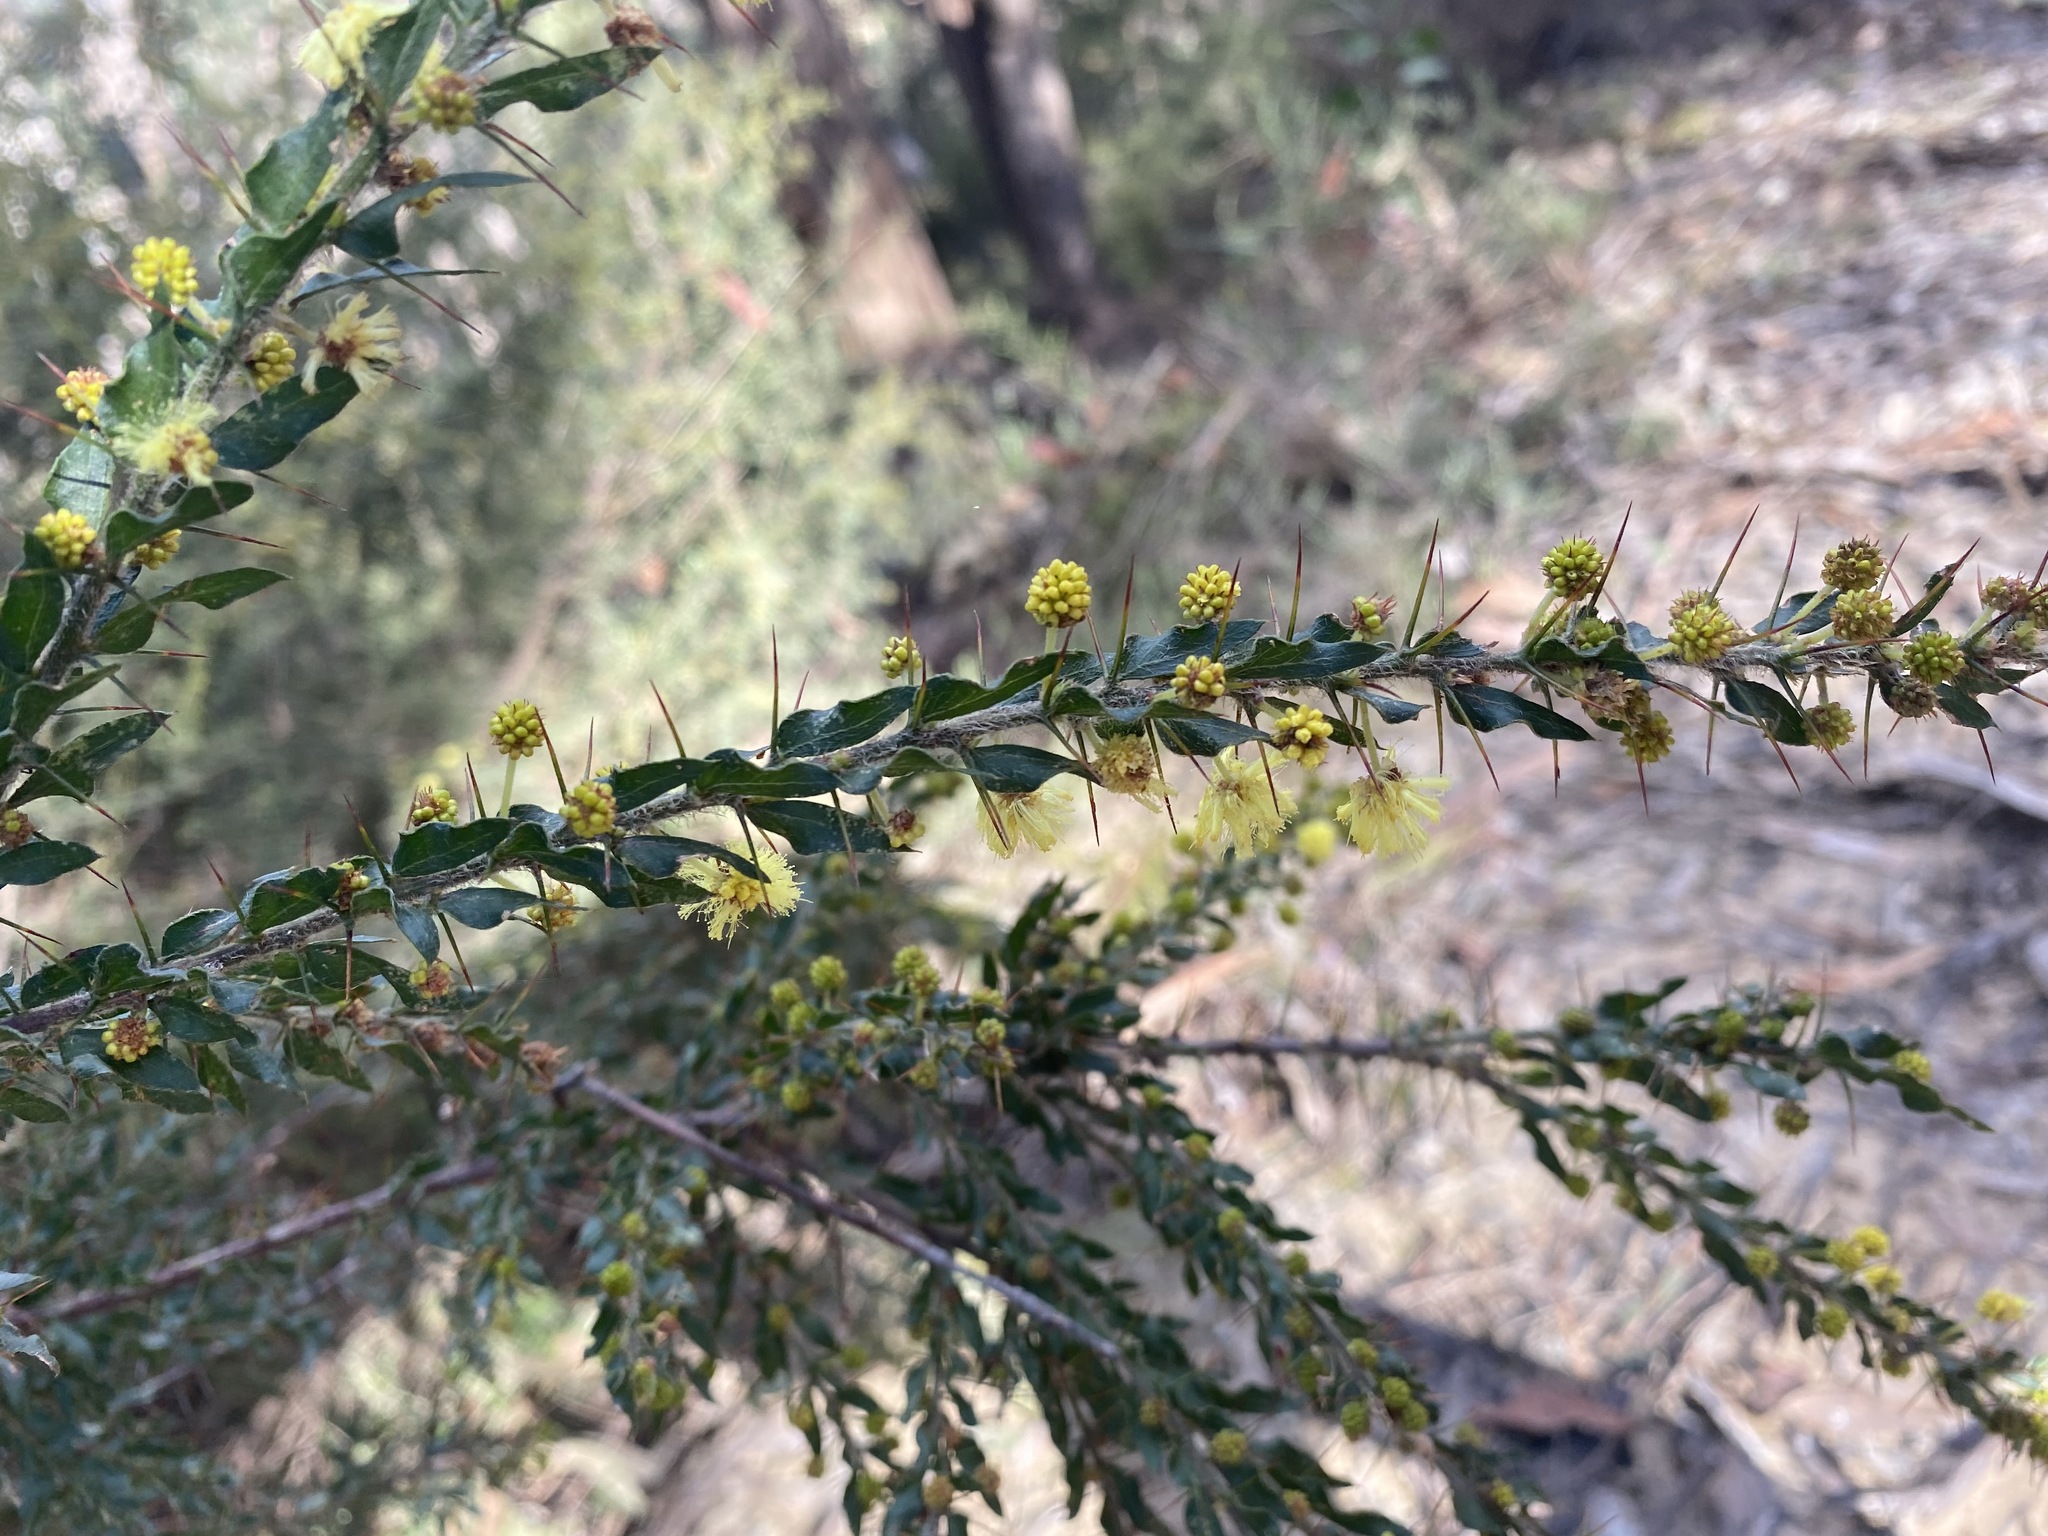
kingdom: Plantae
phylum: Tracheophyta
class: Magnoliopsida
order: Fabales
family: Fabaceae
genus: Acacia
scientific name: Acacia paradoxa
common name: Paradox acacia
